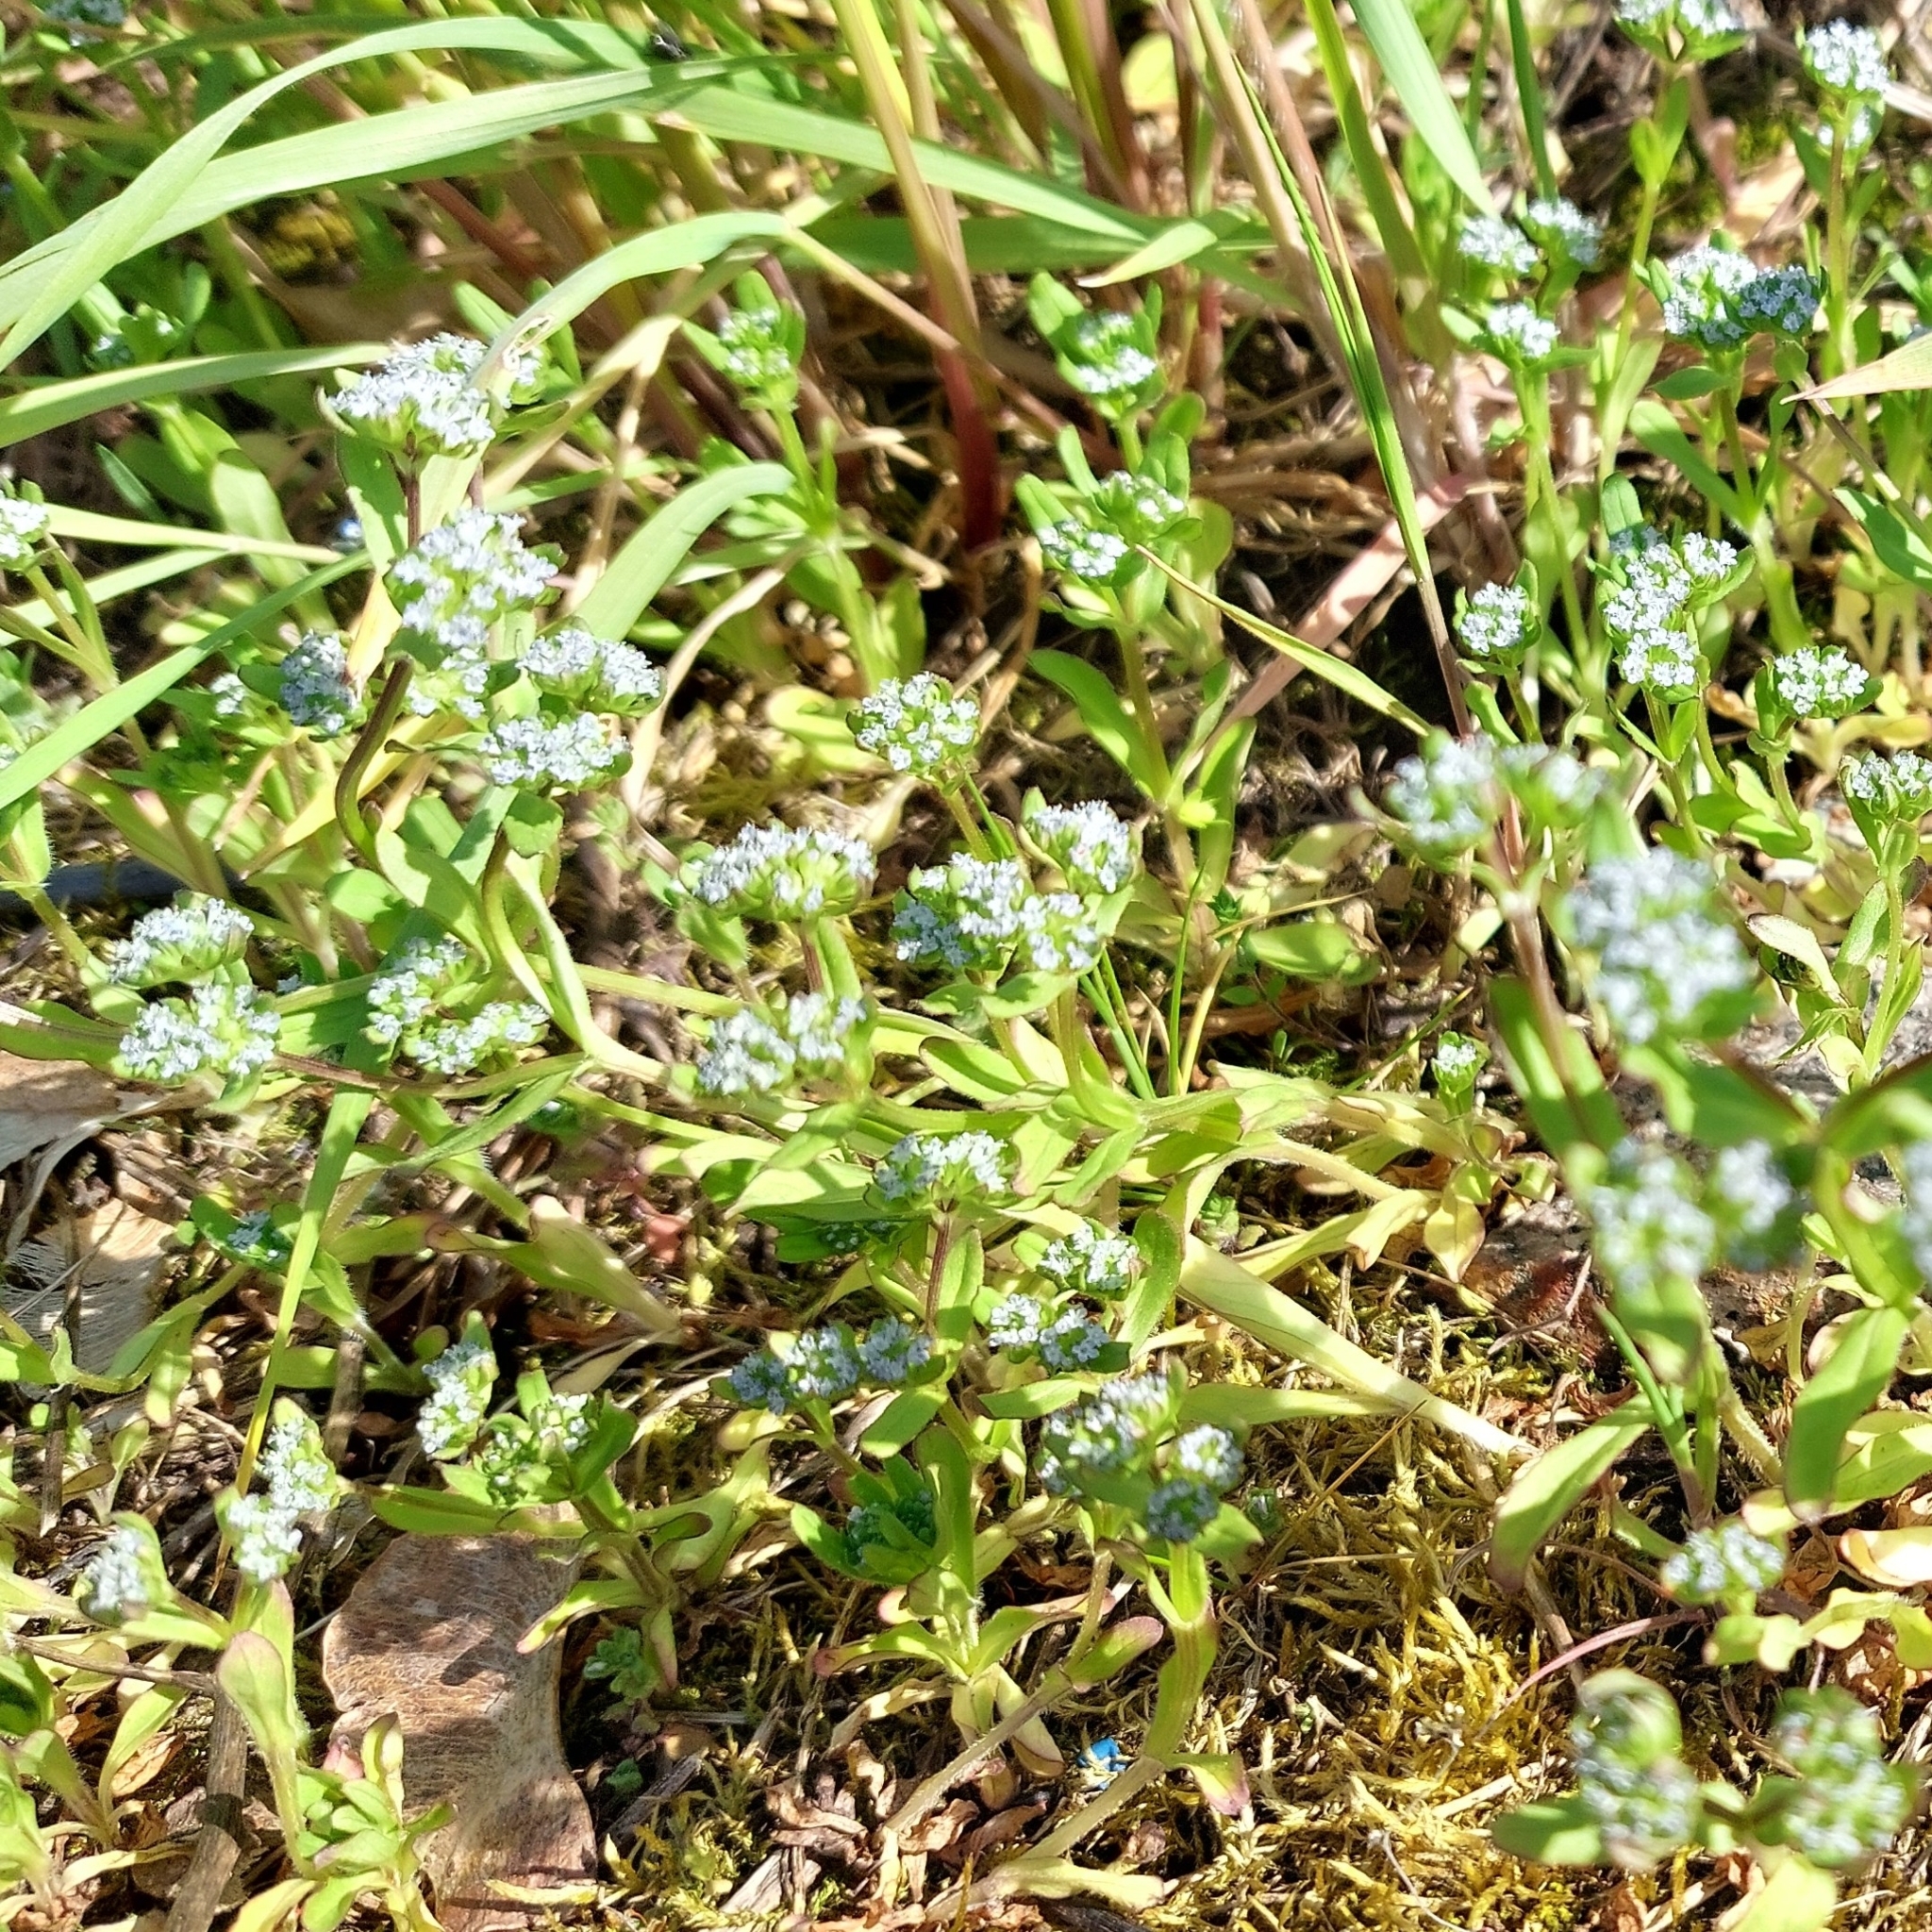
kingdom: Plantae
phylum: Tracheophyta
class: Magnoliopsida
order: Dipsacales
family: Caprifoliaceae
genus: Valerianella
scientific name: Valerianella locusta
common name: Common cornsalad
